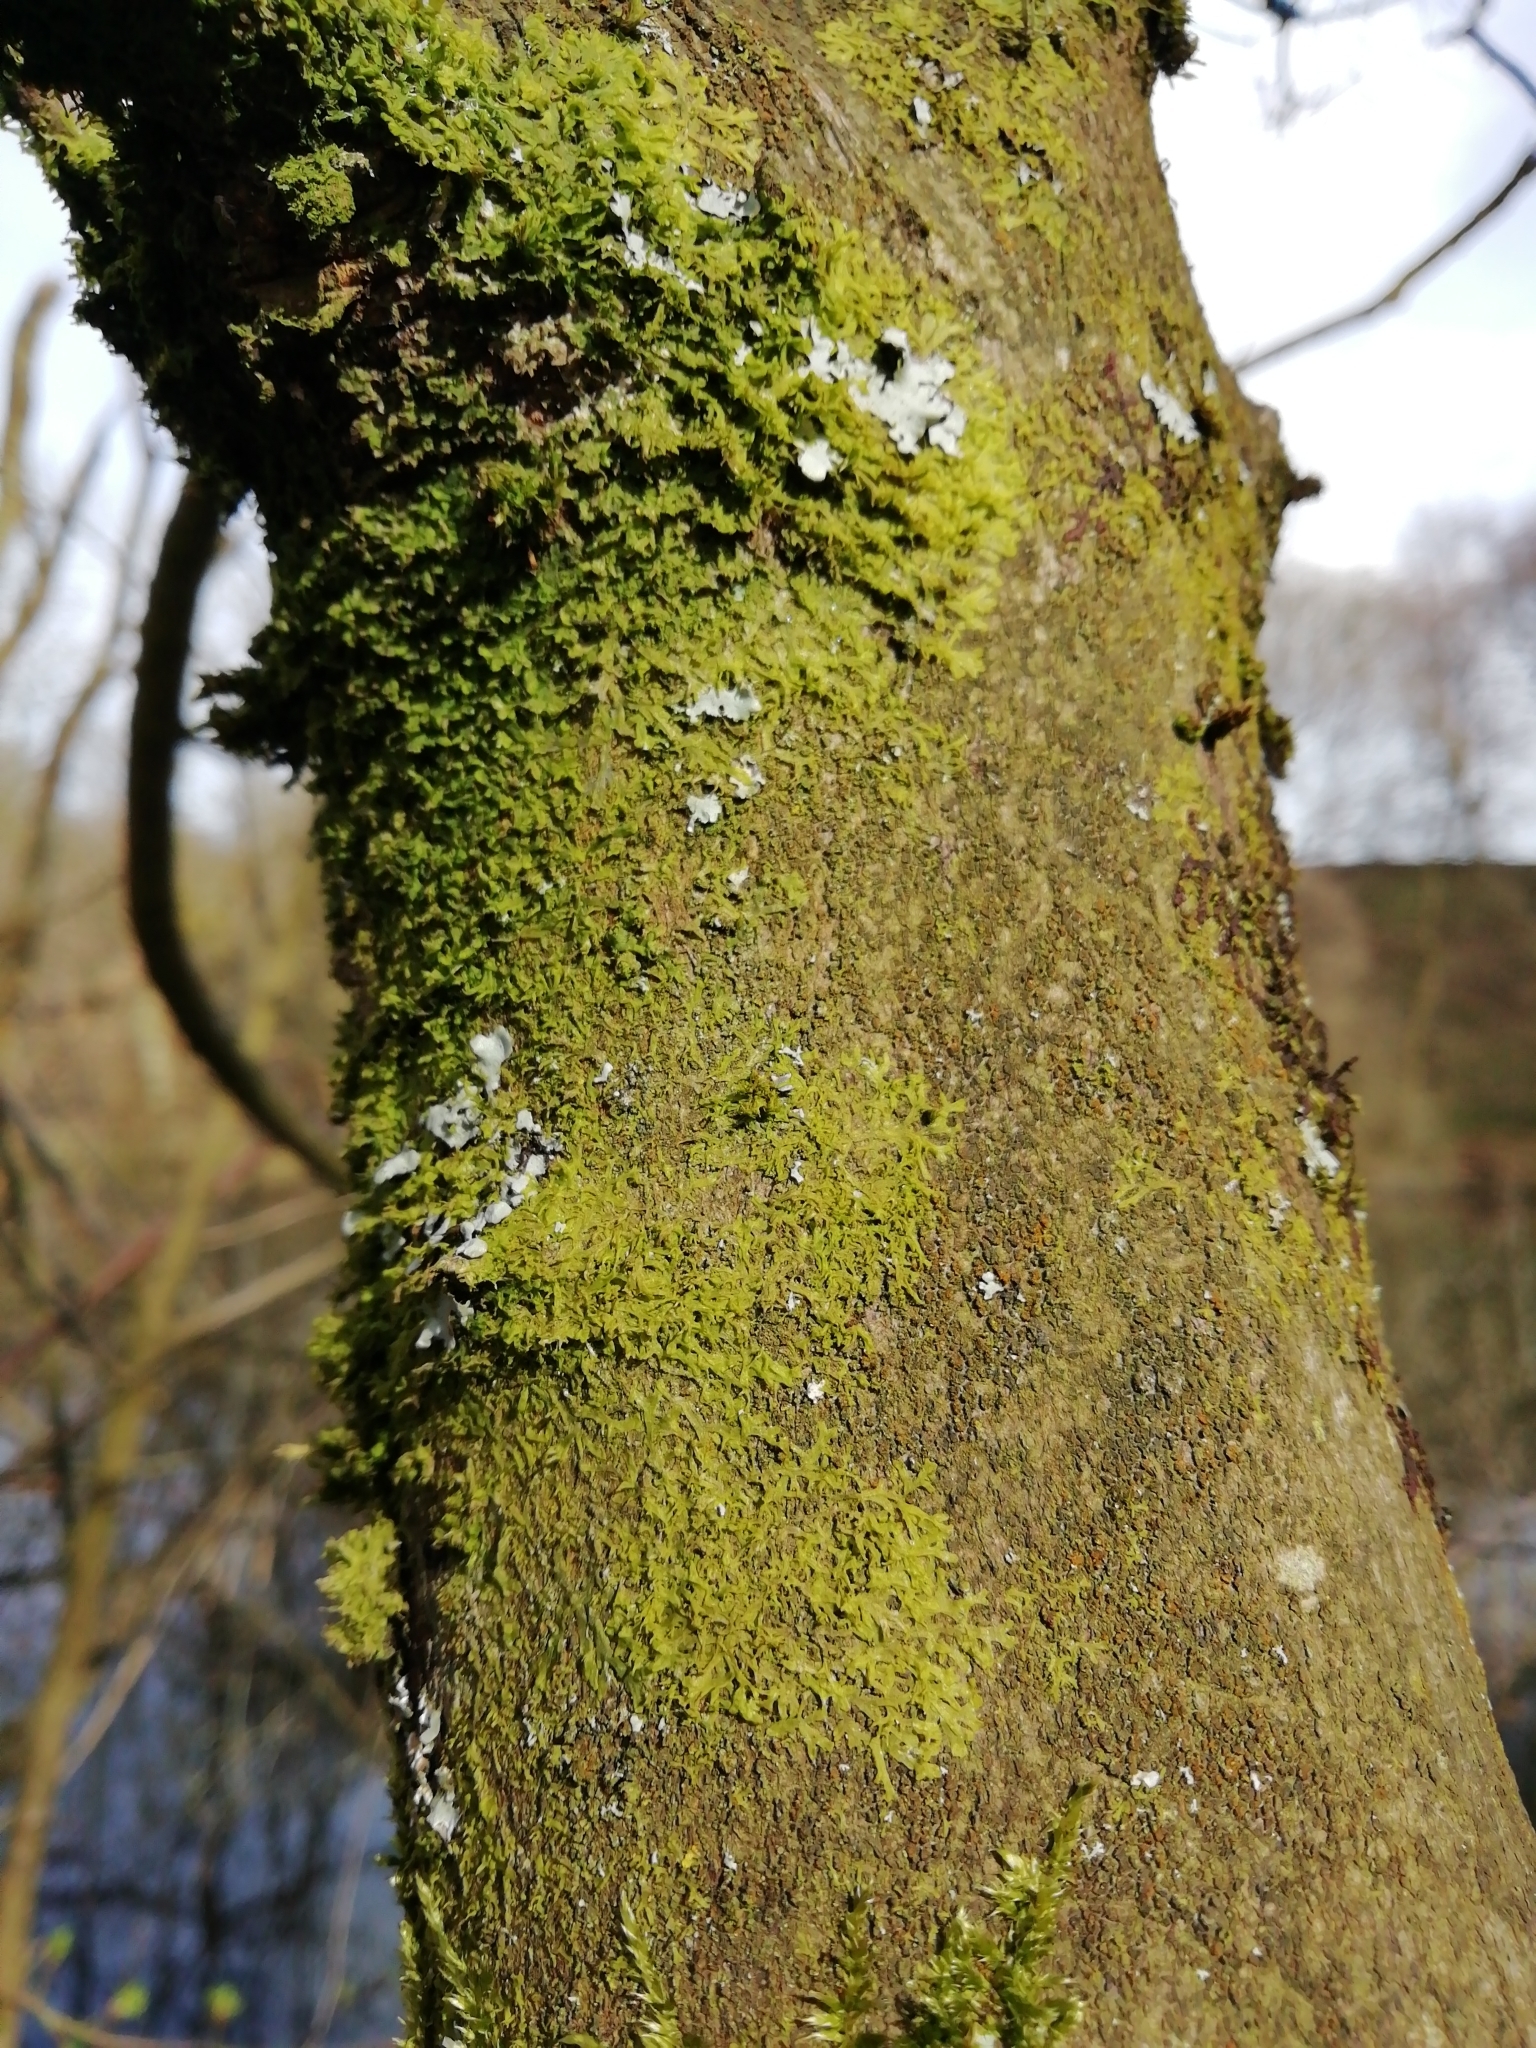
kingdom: Plantae
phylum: Marchantiophyta
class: Jungermanniopsida
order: Metzgeriales
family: Metzgeriaceae
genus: Metzgeria
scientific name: Metzgeria furcata
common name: Forked veilwort
